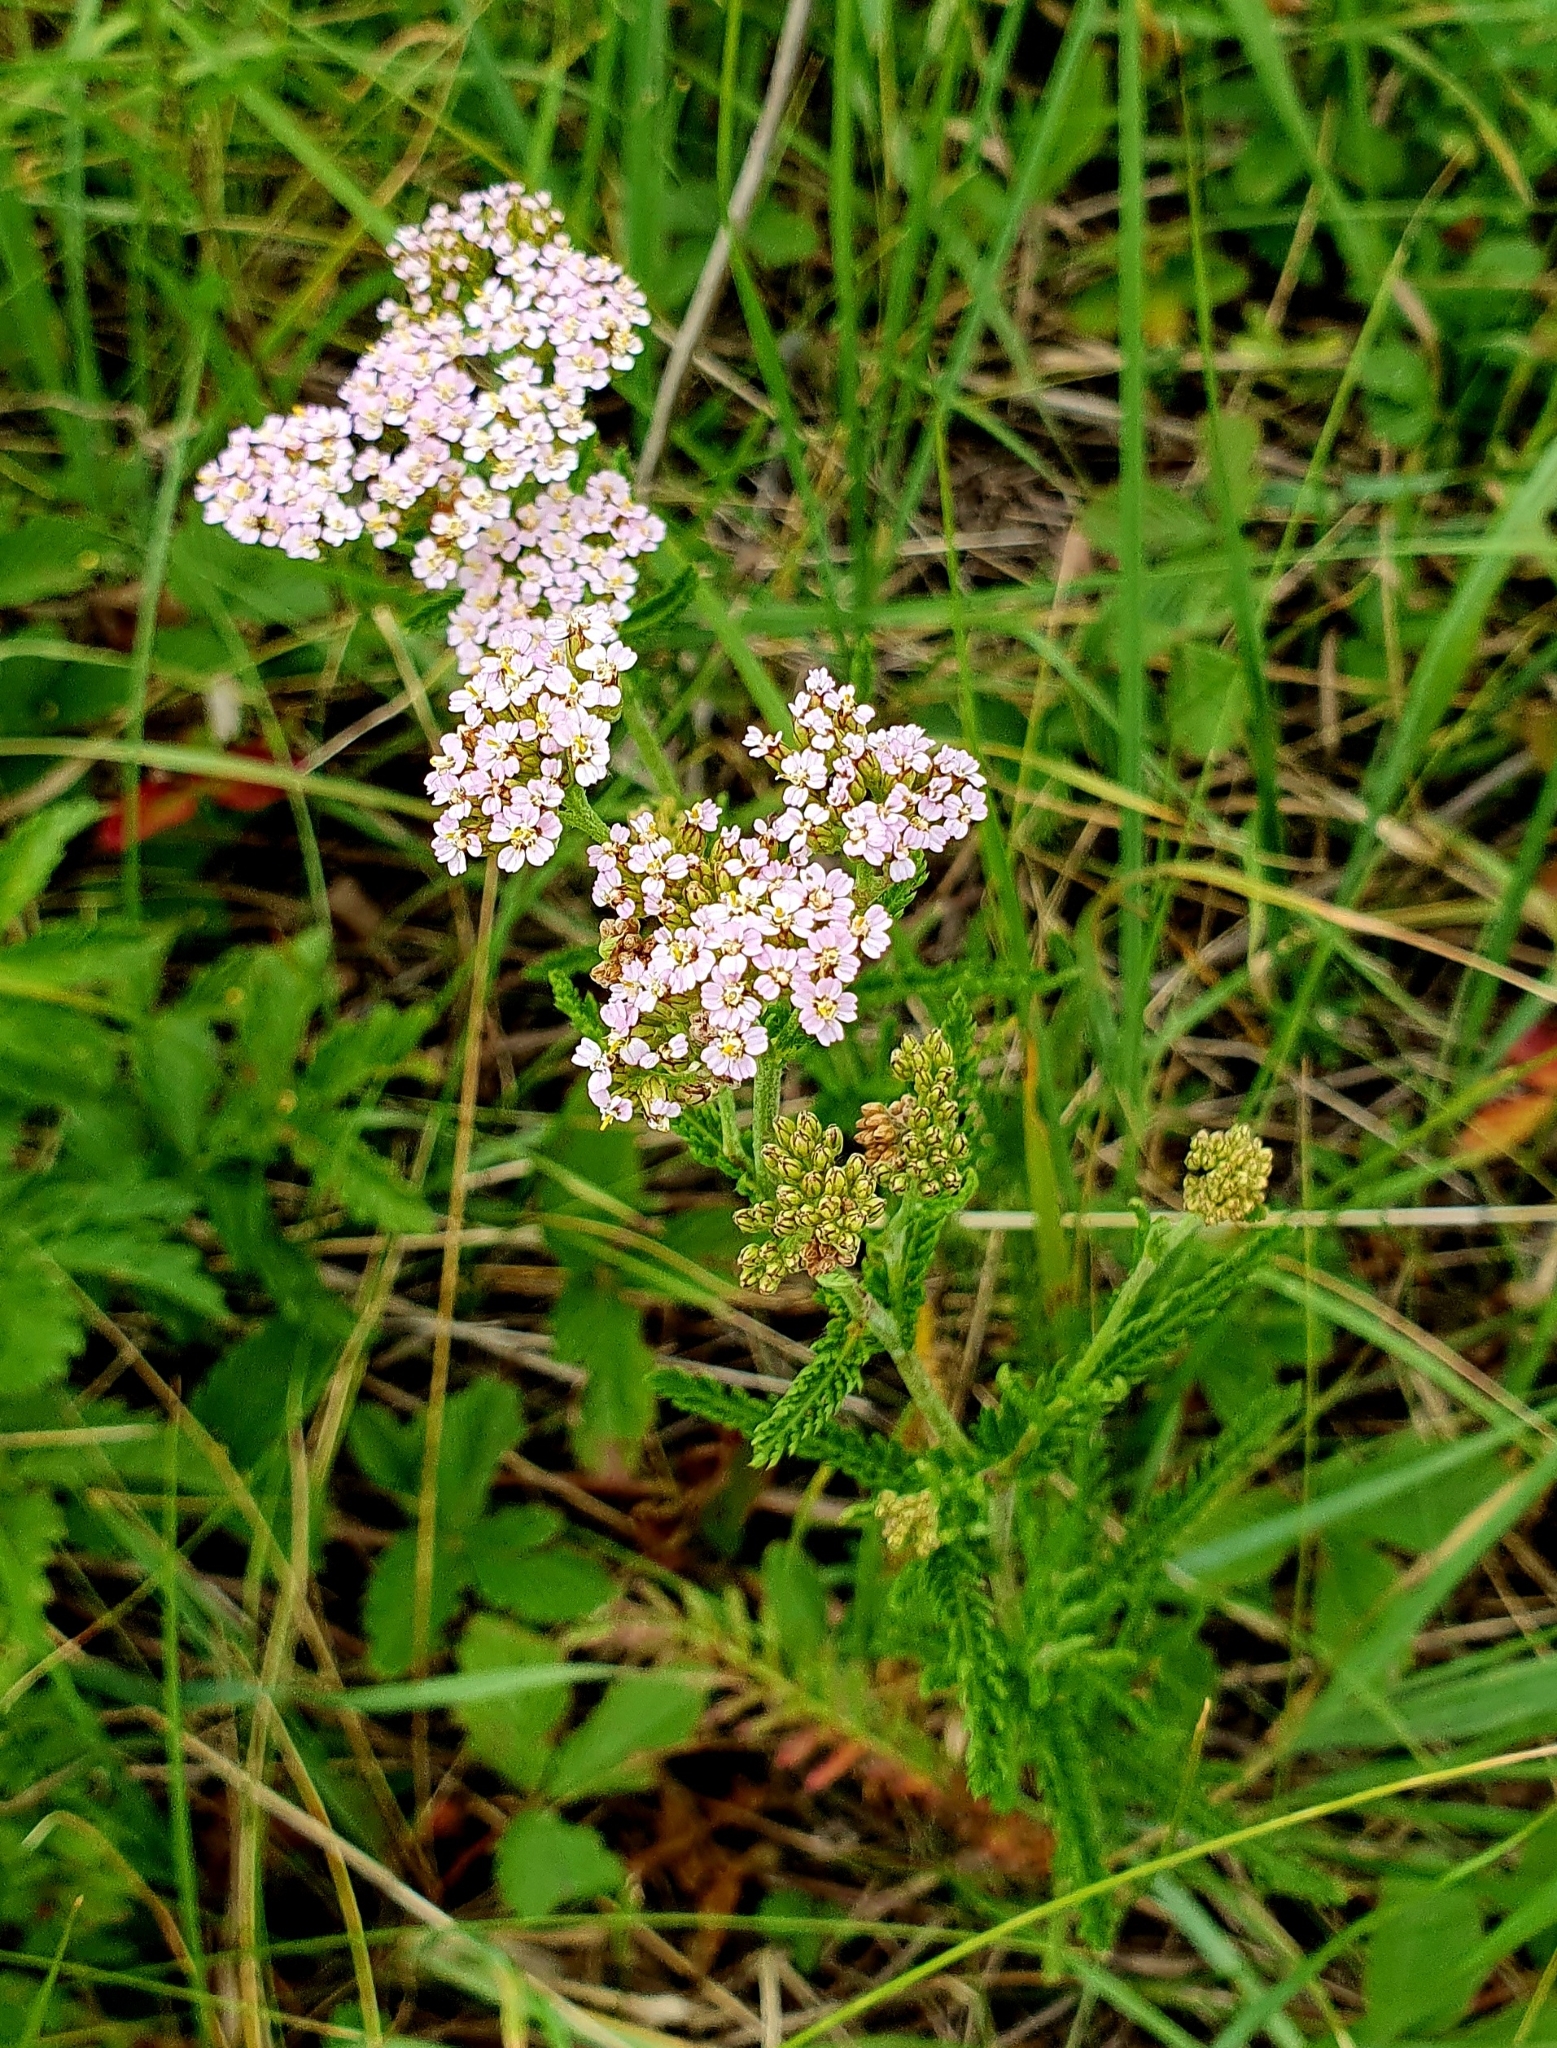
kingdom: Plantae
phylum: Tracheophyta
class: Magnoliopsida
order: Asterales
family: Asteraceae
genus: Achillea
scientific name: Achillea millefolium
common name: Yarrow
